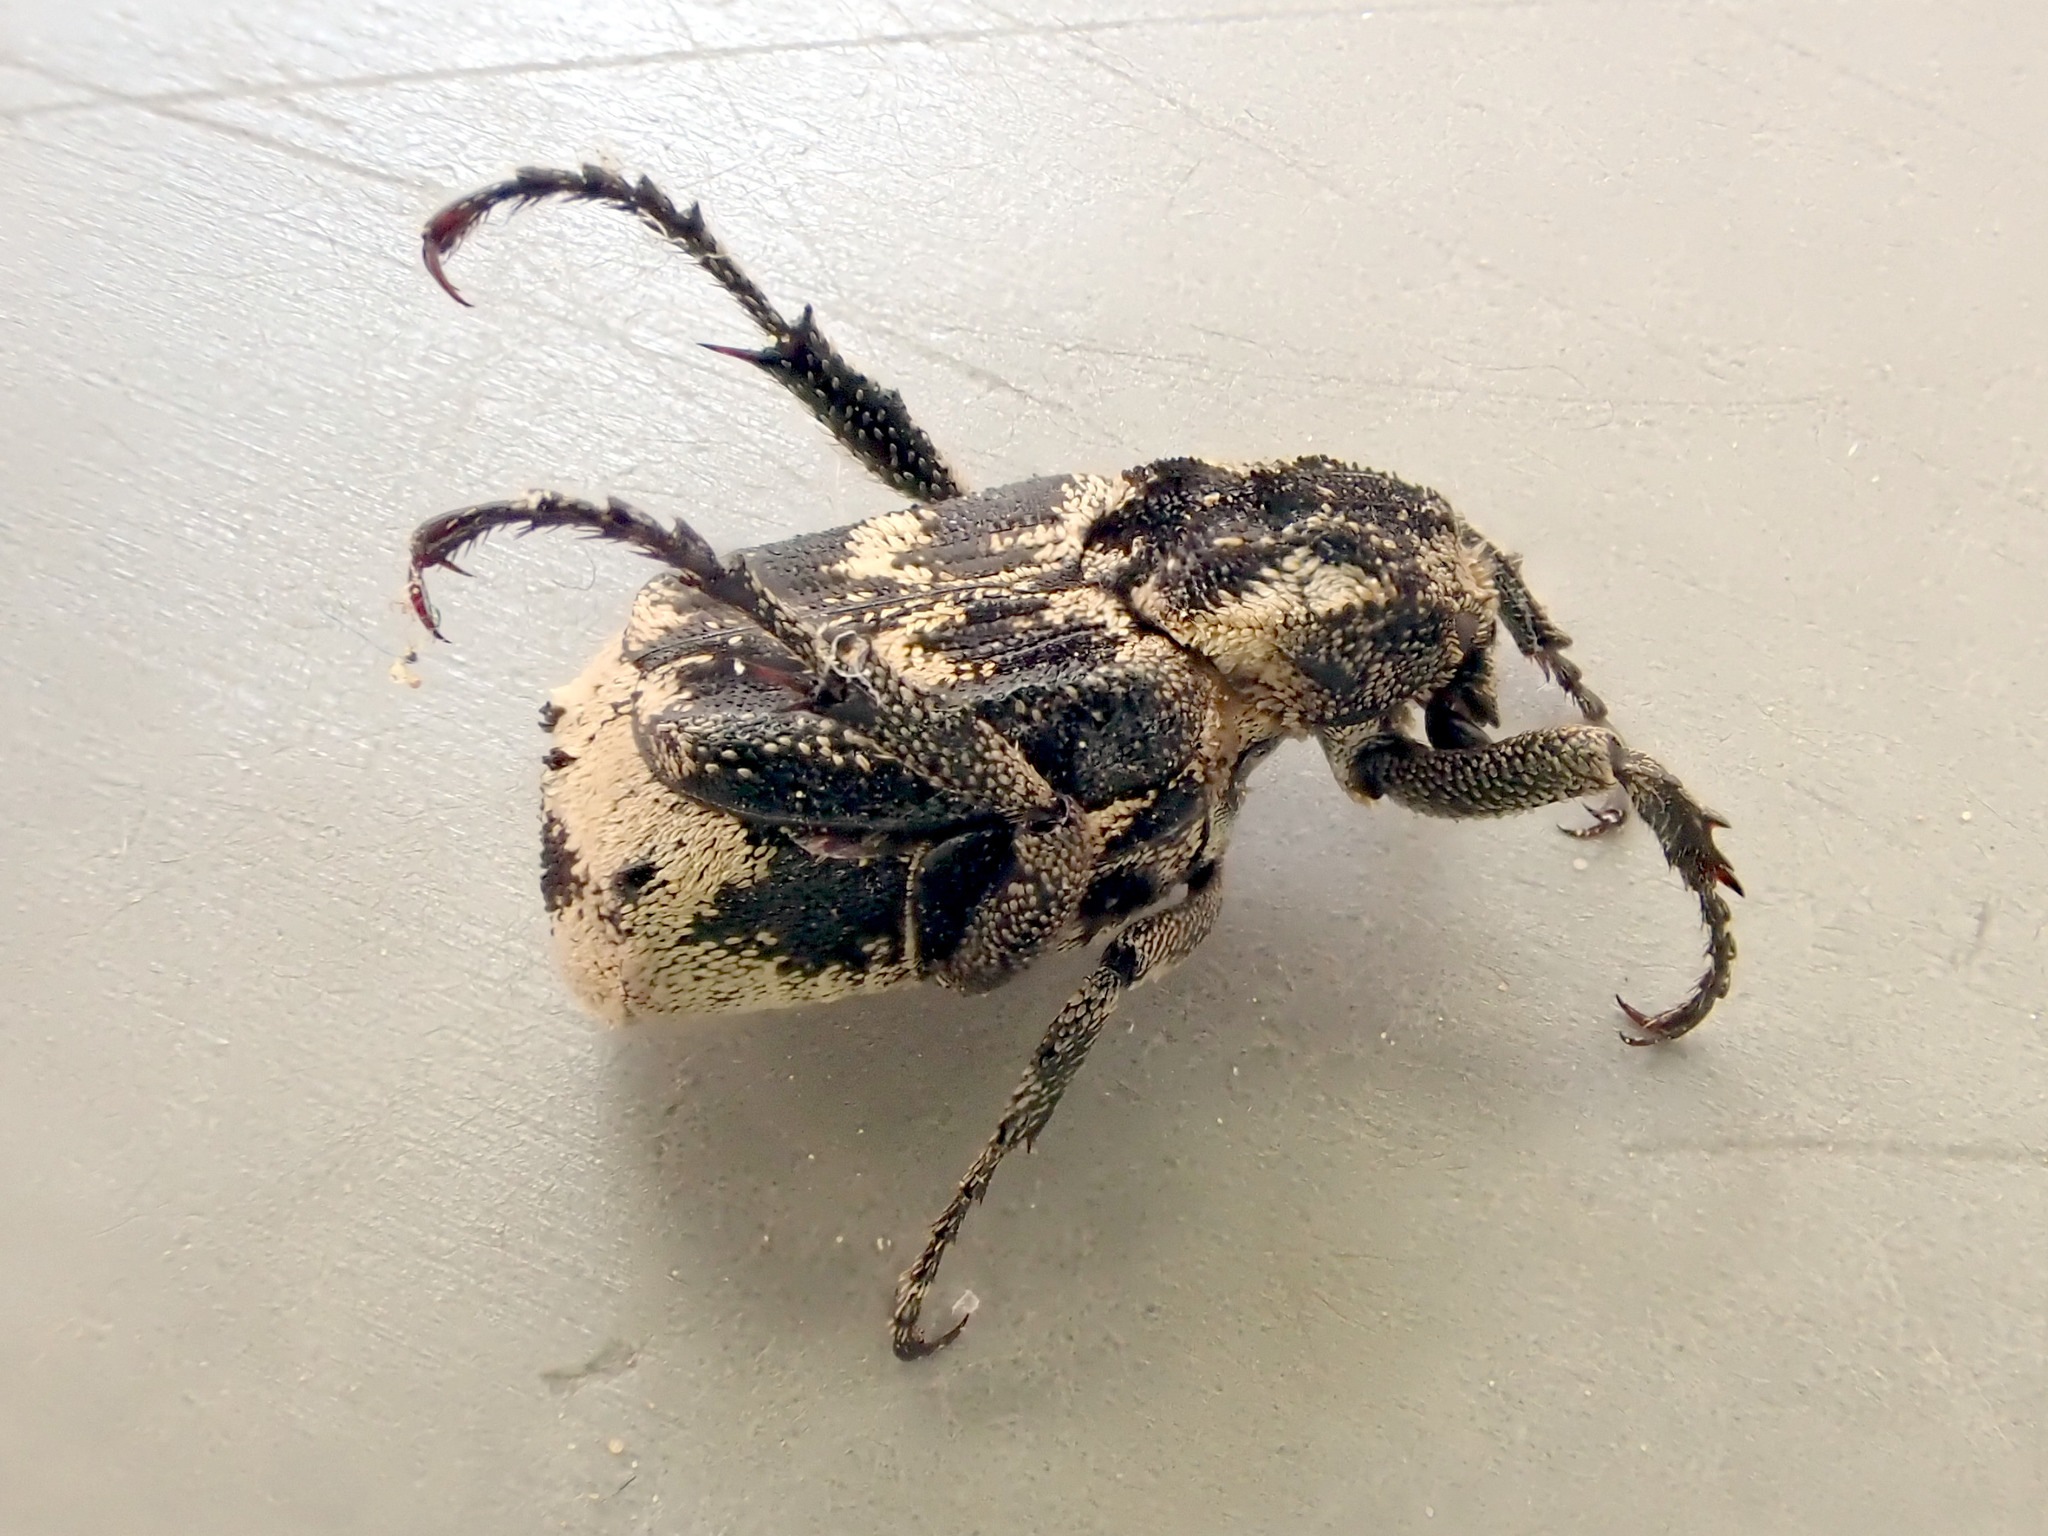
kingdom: Animalia
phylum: Arthropoda
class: Insecta
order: Coleoptera
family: Scarabaeidae
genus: Valgus
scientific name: Valgus hemipterus
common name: Bug flower chafer
